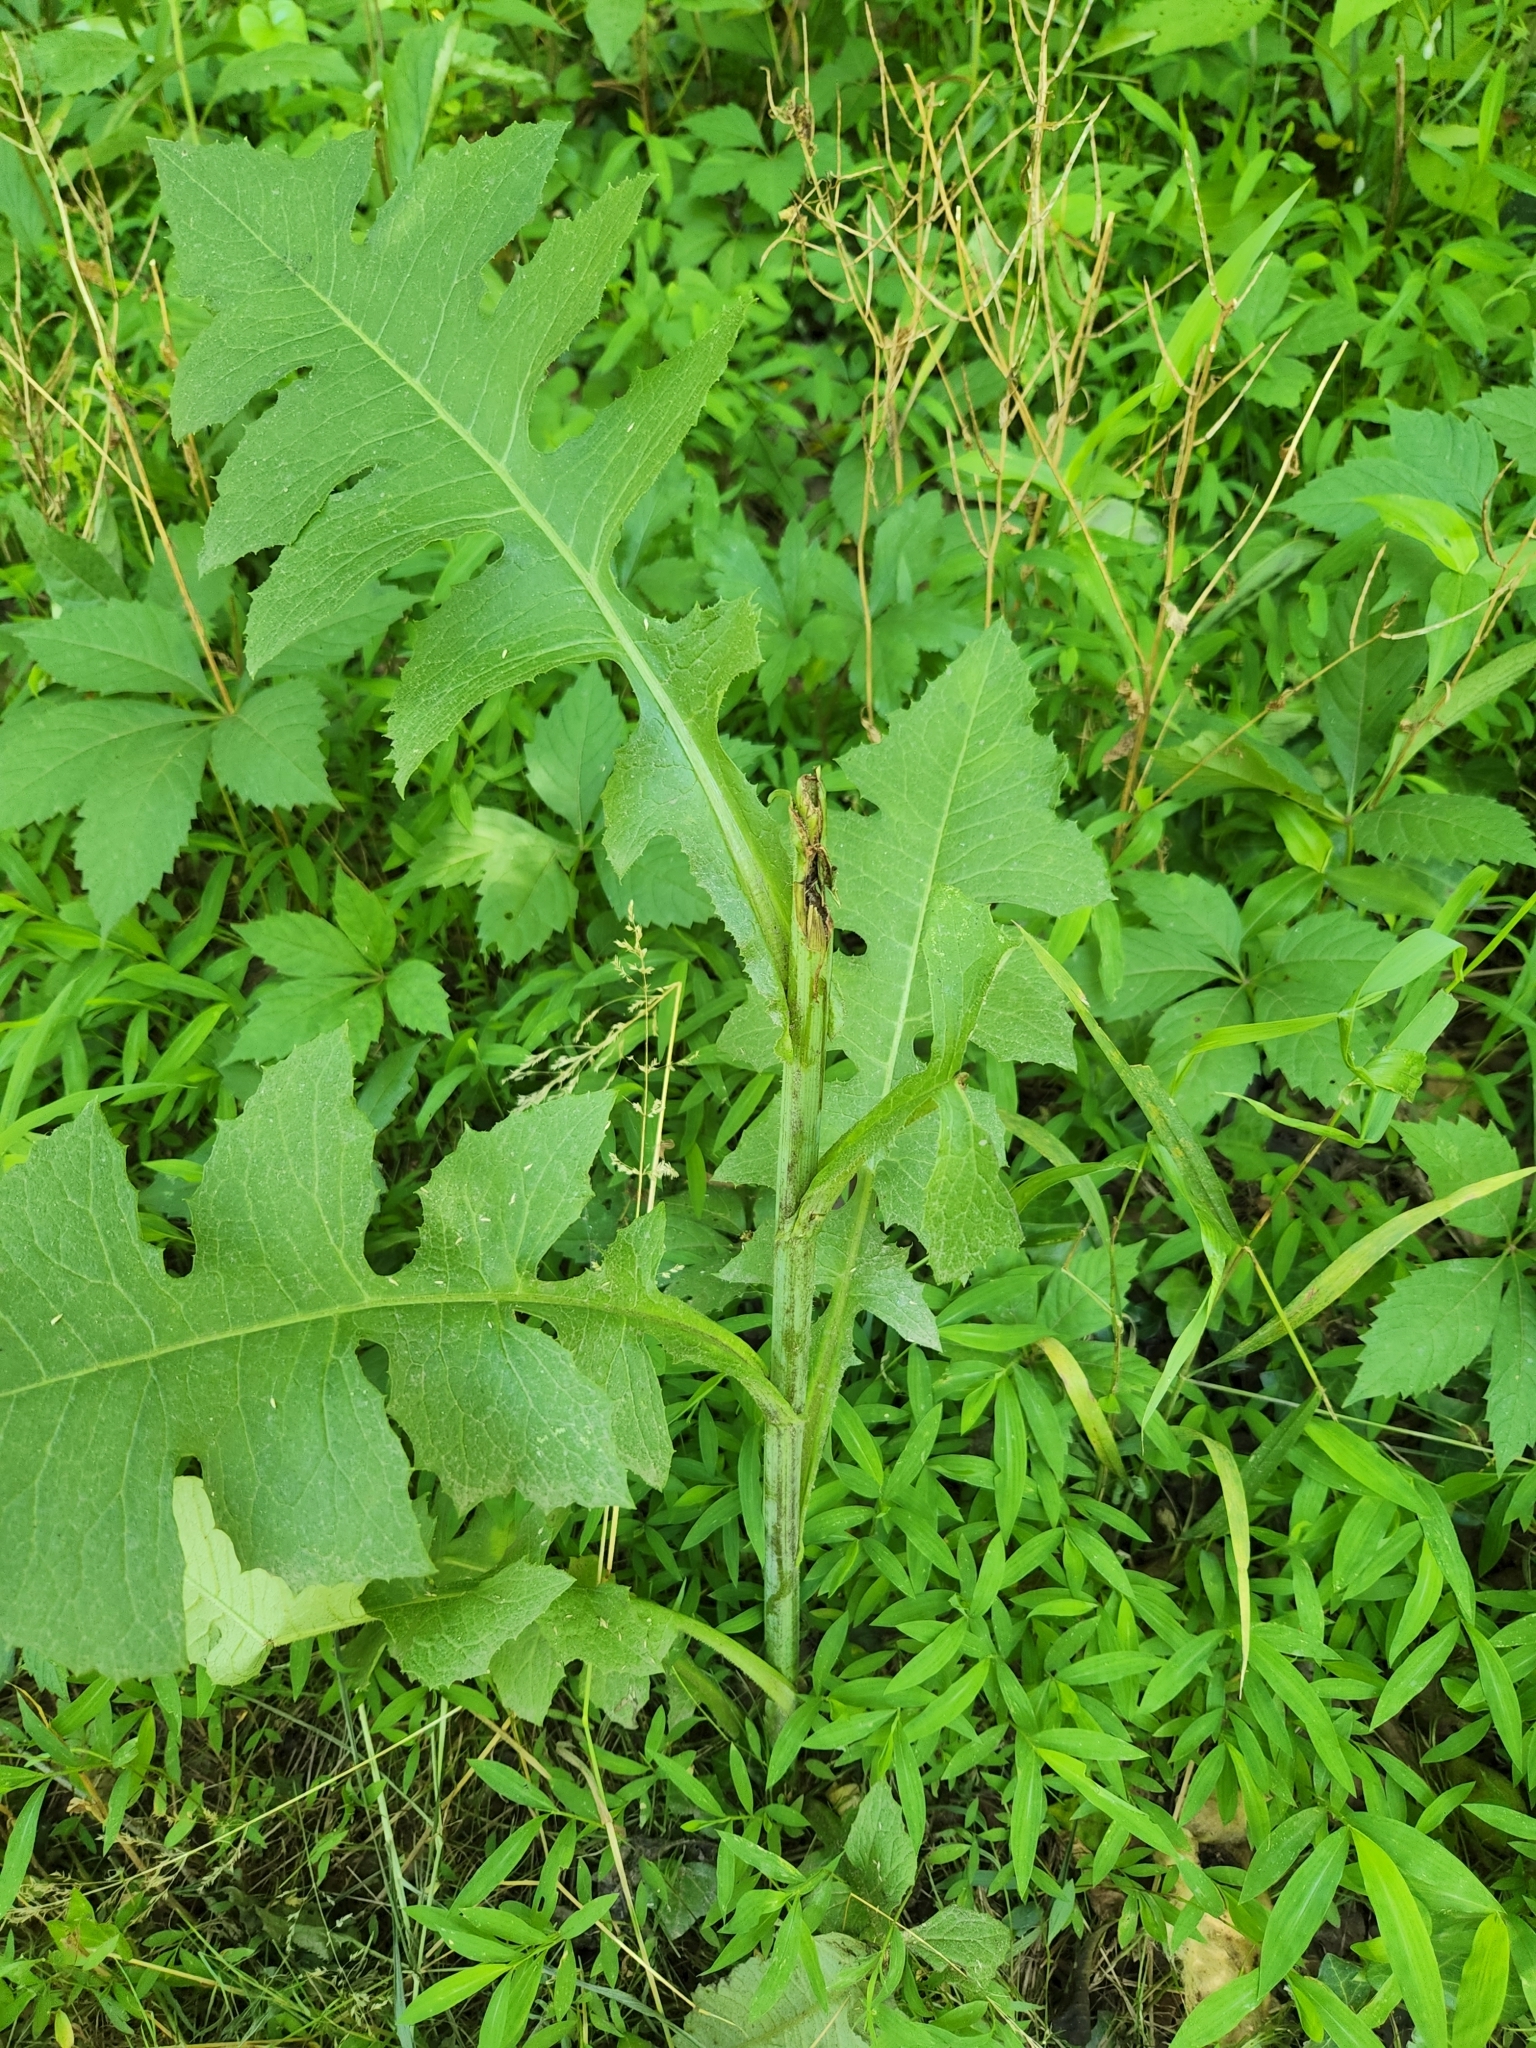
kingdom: Plantae
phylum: Tracheophyta
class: Magnoliopsida
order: Asterales
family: Asteraceae
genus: Lactuca
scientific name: Lactuca biennis
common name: Blue wood lettuce
